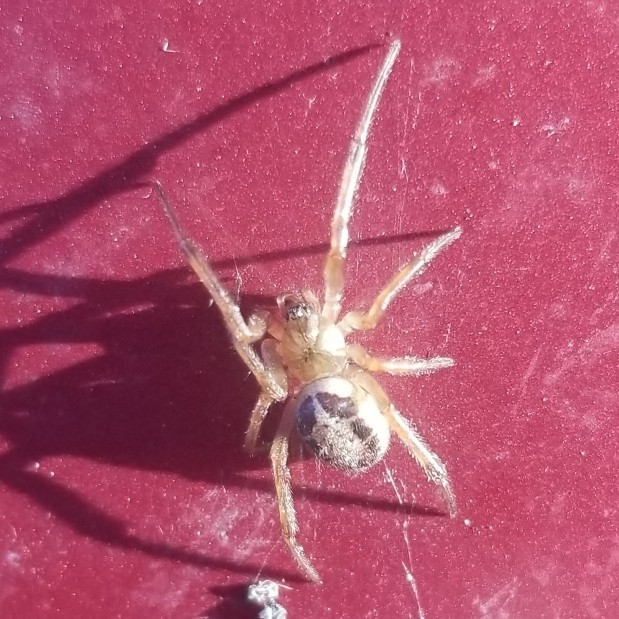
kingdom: Animalia
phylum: Arthropoda
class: Arachnida
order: Araneae
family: Theridiidae
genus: Steatoda
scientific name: Steatoda nobilis
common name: Cobweb weaver
